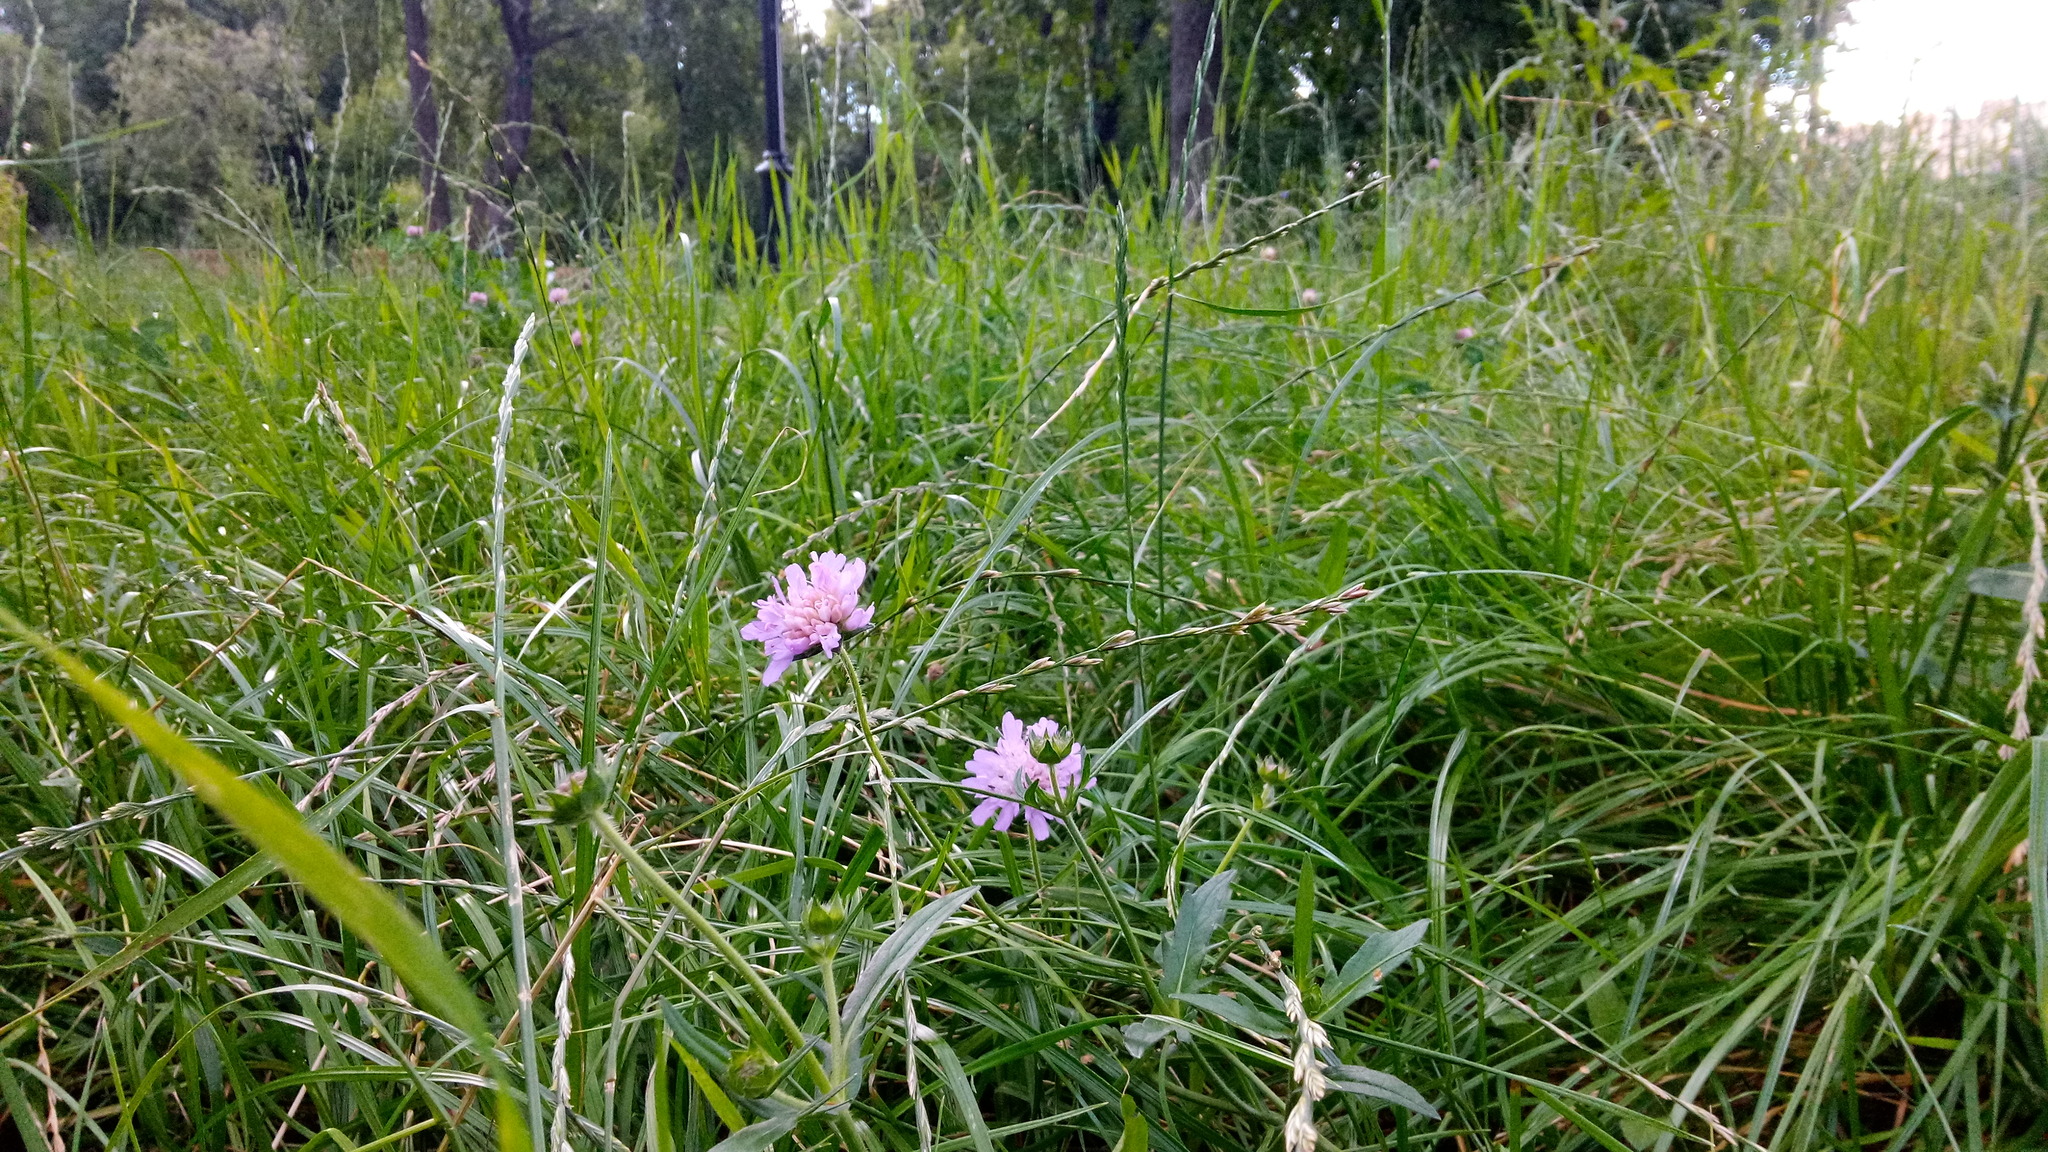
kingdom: Plantae
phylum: Tracheophyta
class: Magnoliopsida
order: Dipsacales
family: Caprifoliaceae
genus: Knautia
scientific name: Knautia arvensis
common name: Field scabiosa
